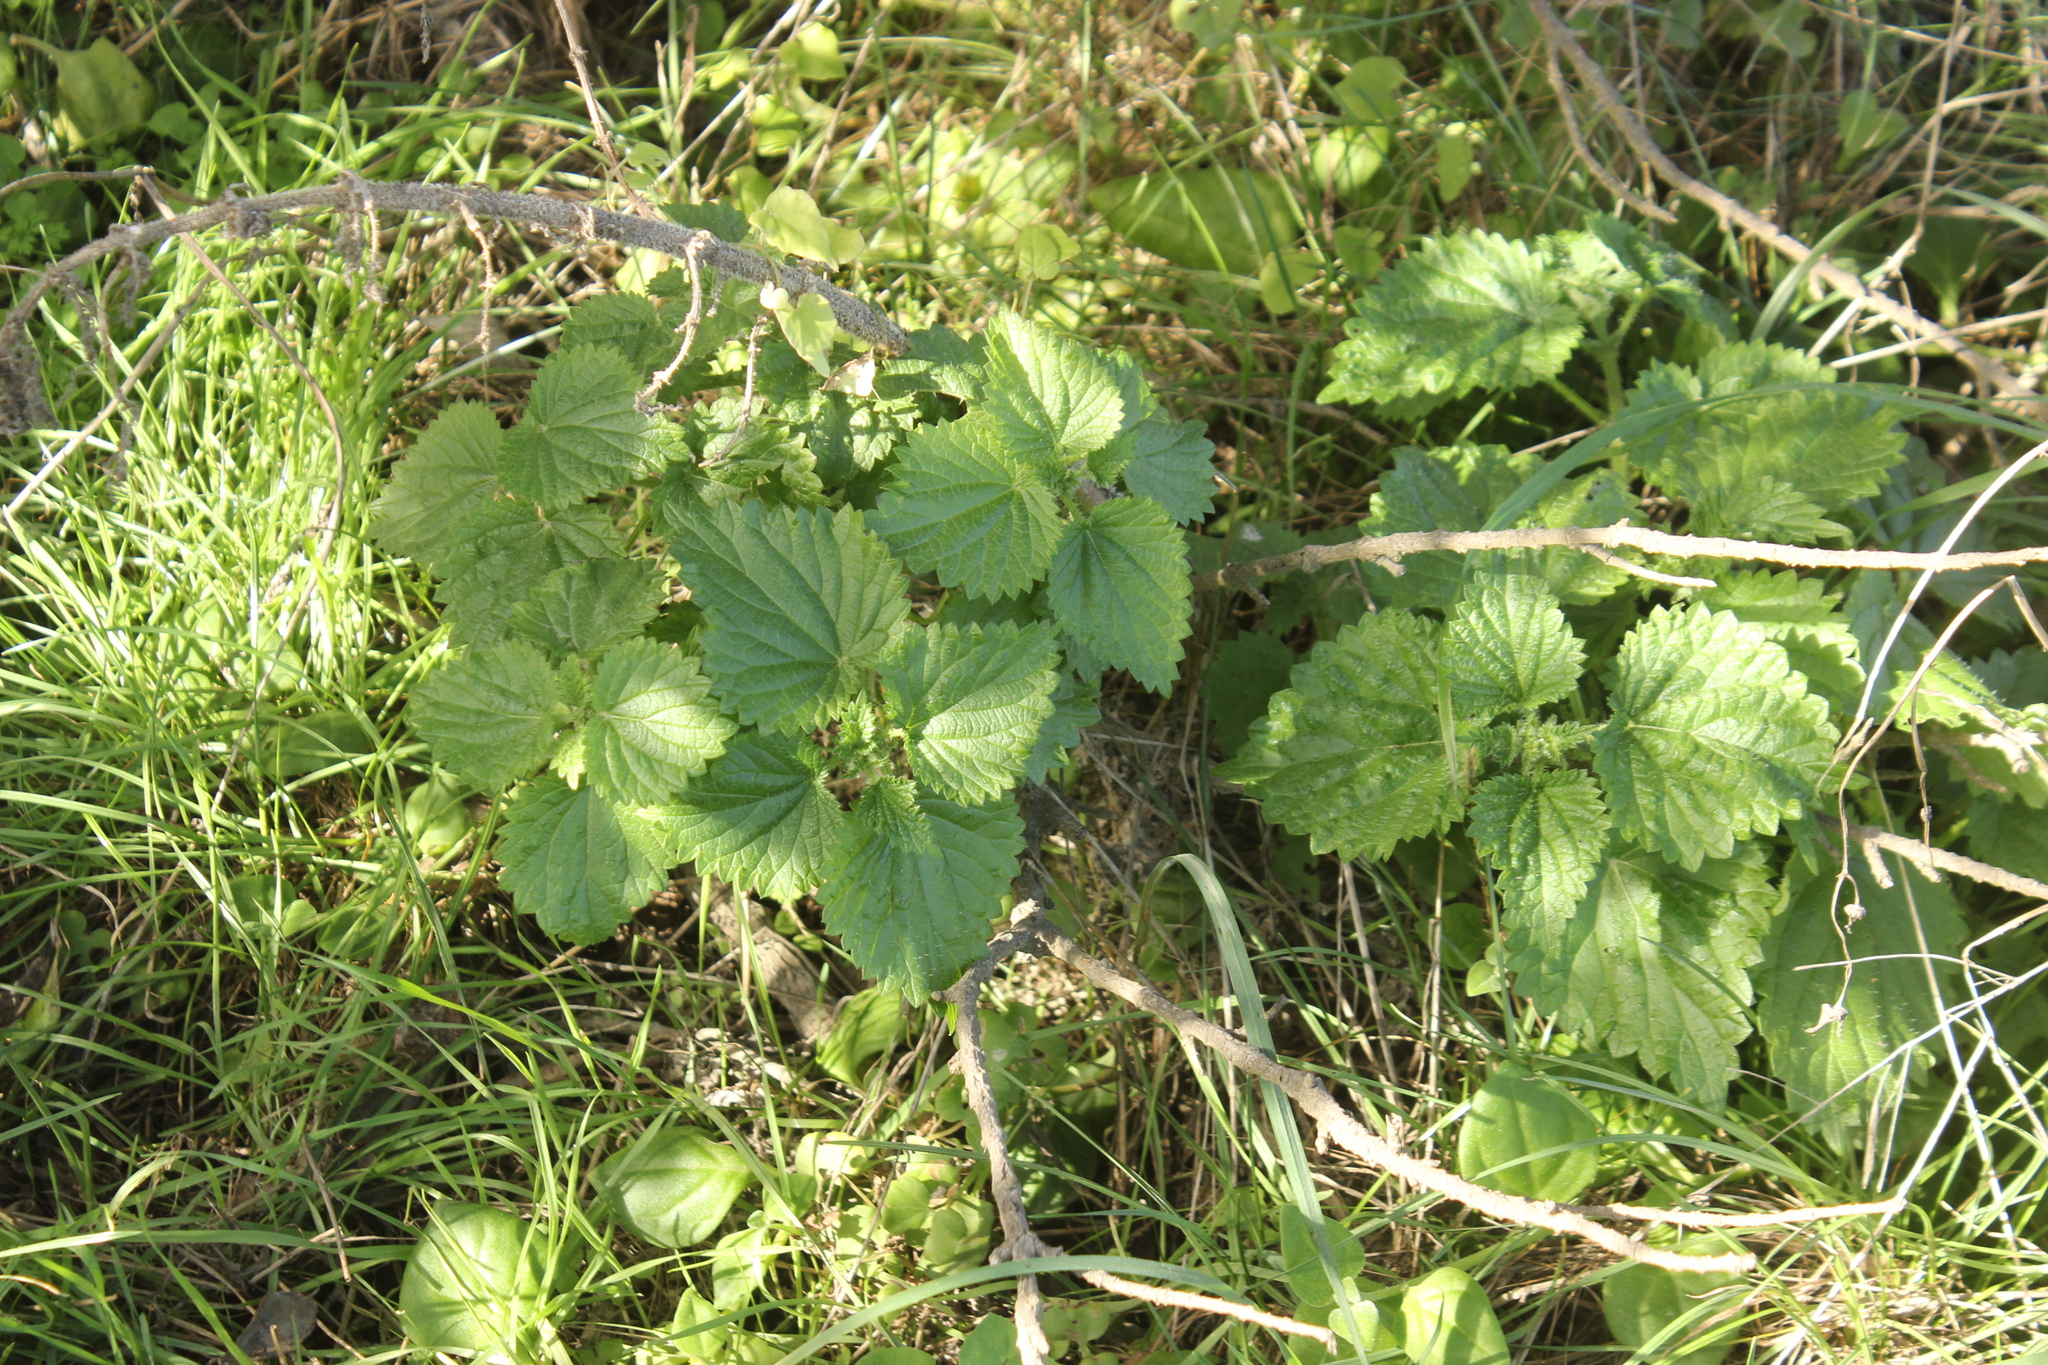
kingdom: Plantae
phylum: Tracheophyta
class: Magnoliopsida
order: Rosales
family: Urticaceae
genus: Urtica
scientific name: Urtica australis
